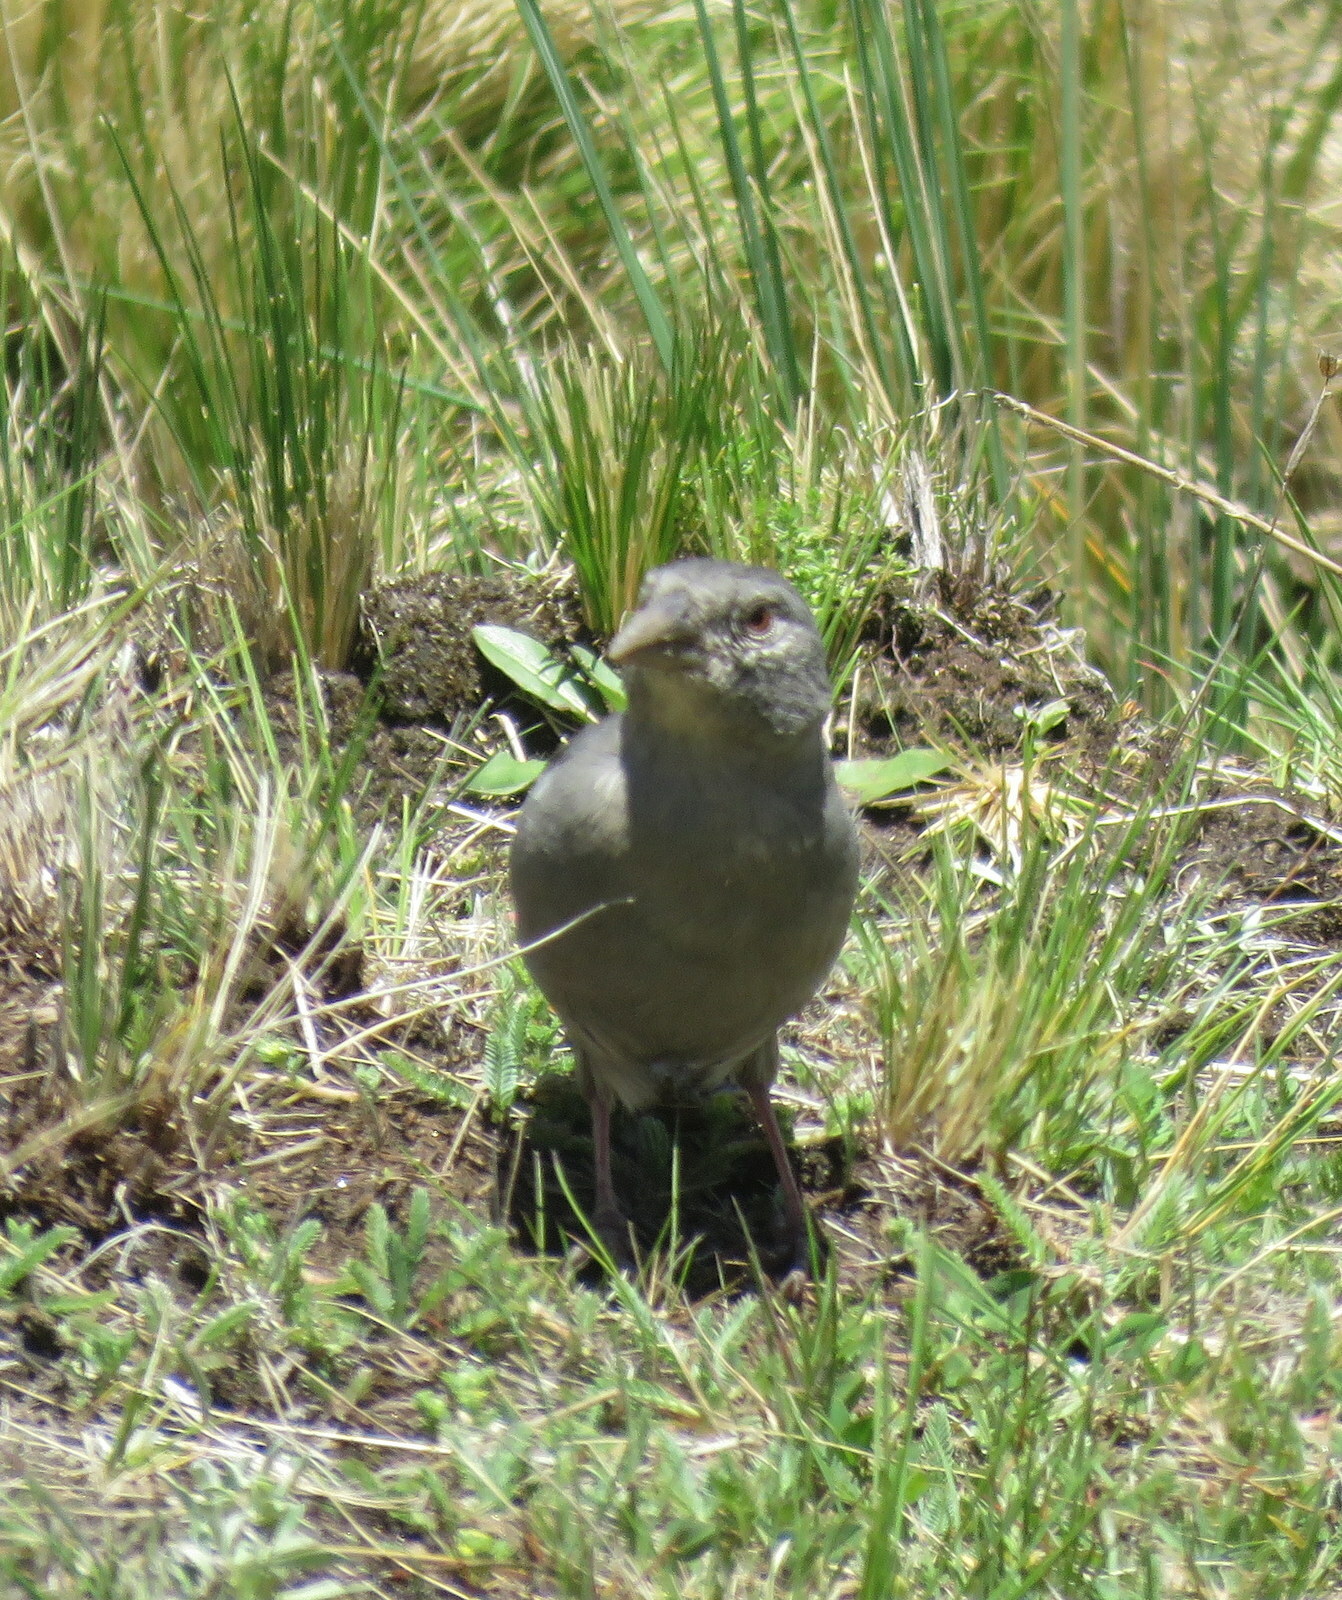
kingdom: Animalia
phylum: Chordata
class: Aves
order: Passeriformes
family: Thraupidae
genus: Idiopsar
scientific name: Idiopsar brachyurus
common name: Short-tailed finch
